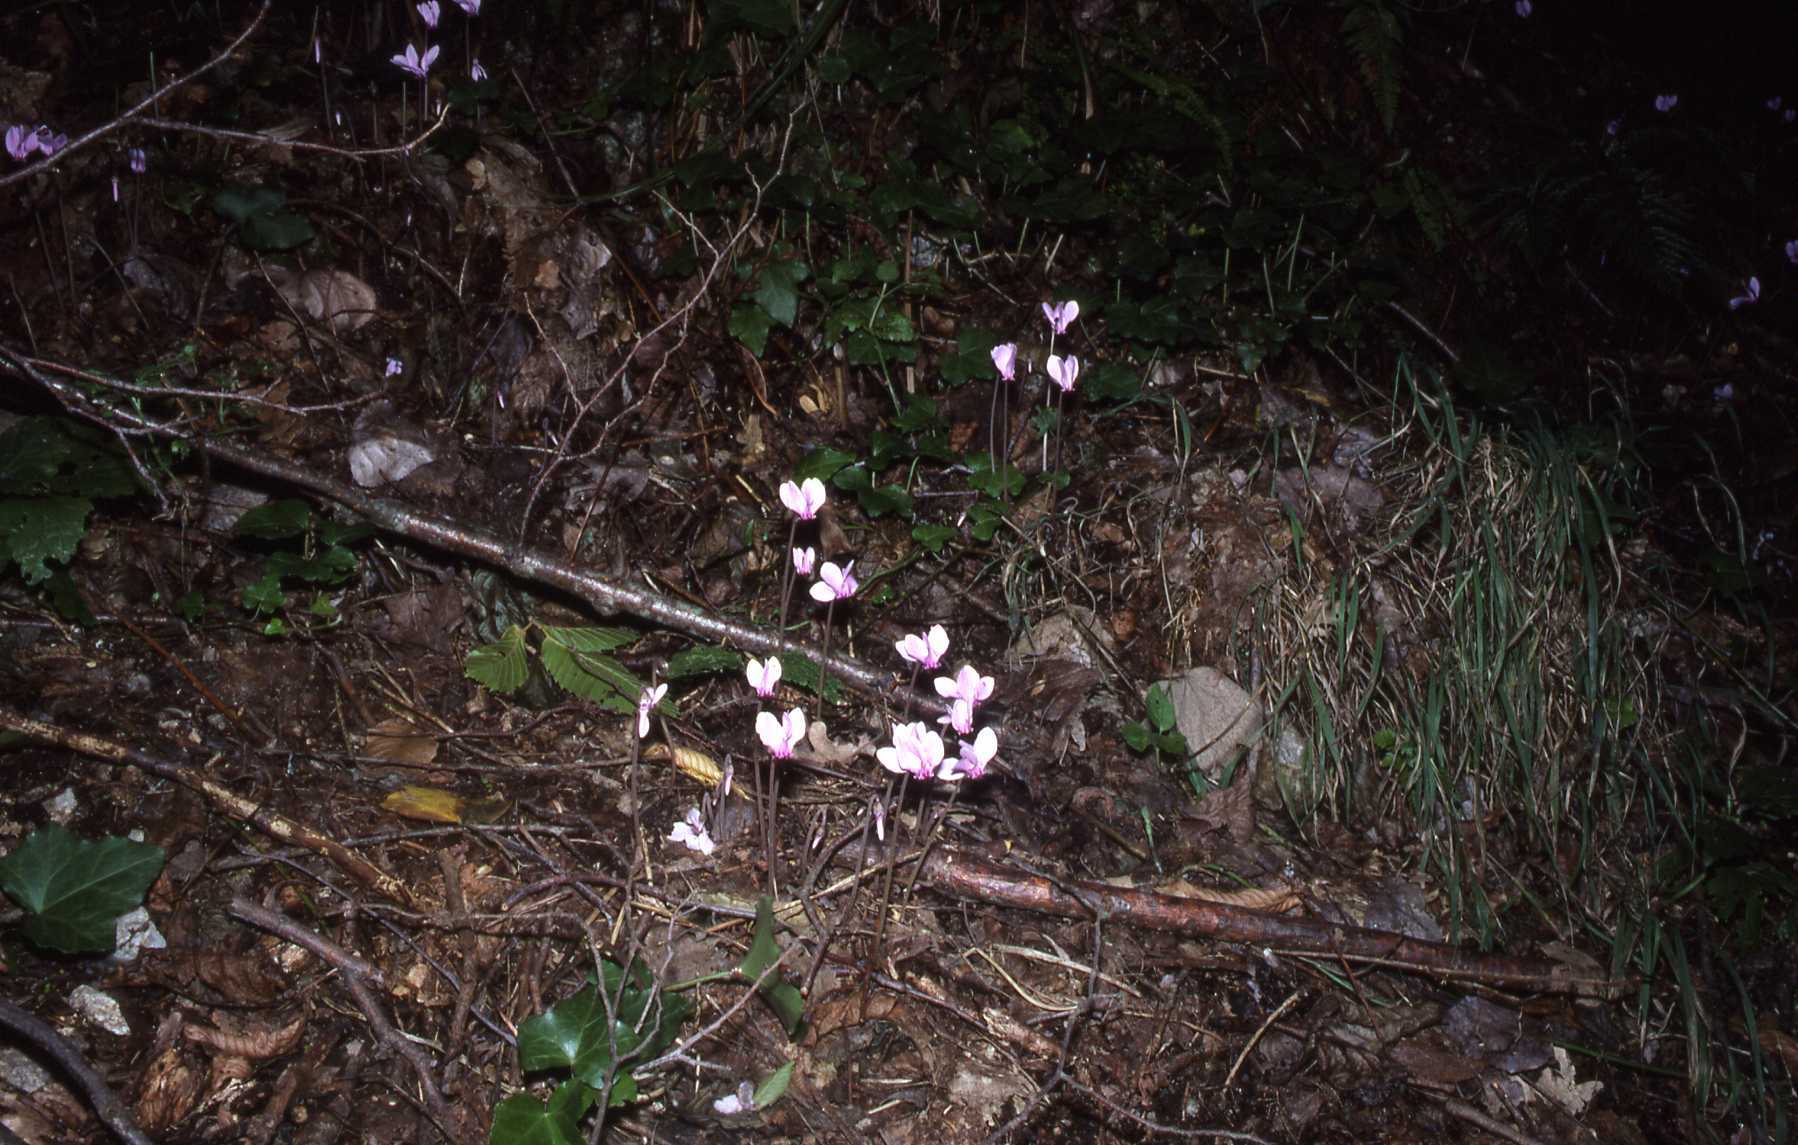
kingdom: Plantae
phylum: Tracheophyta
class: Magnoliopsida
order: Ericales
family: Primulaceae
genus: Cyclamen
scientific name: Cyclamen hederifolium
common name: Sowbread
